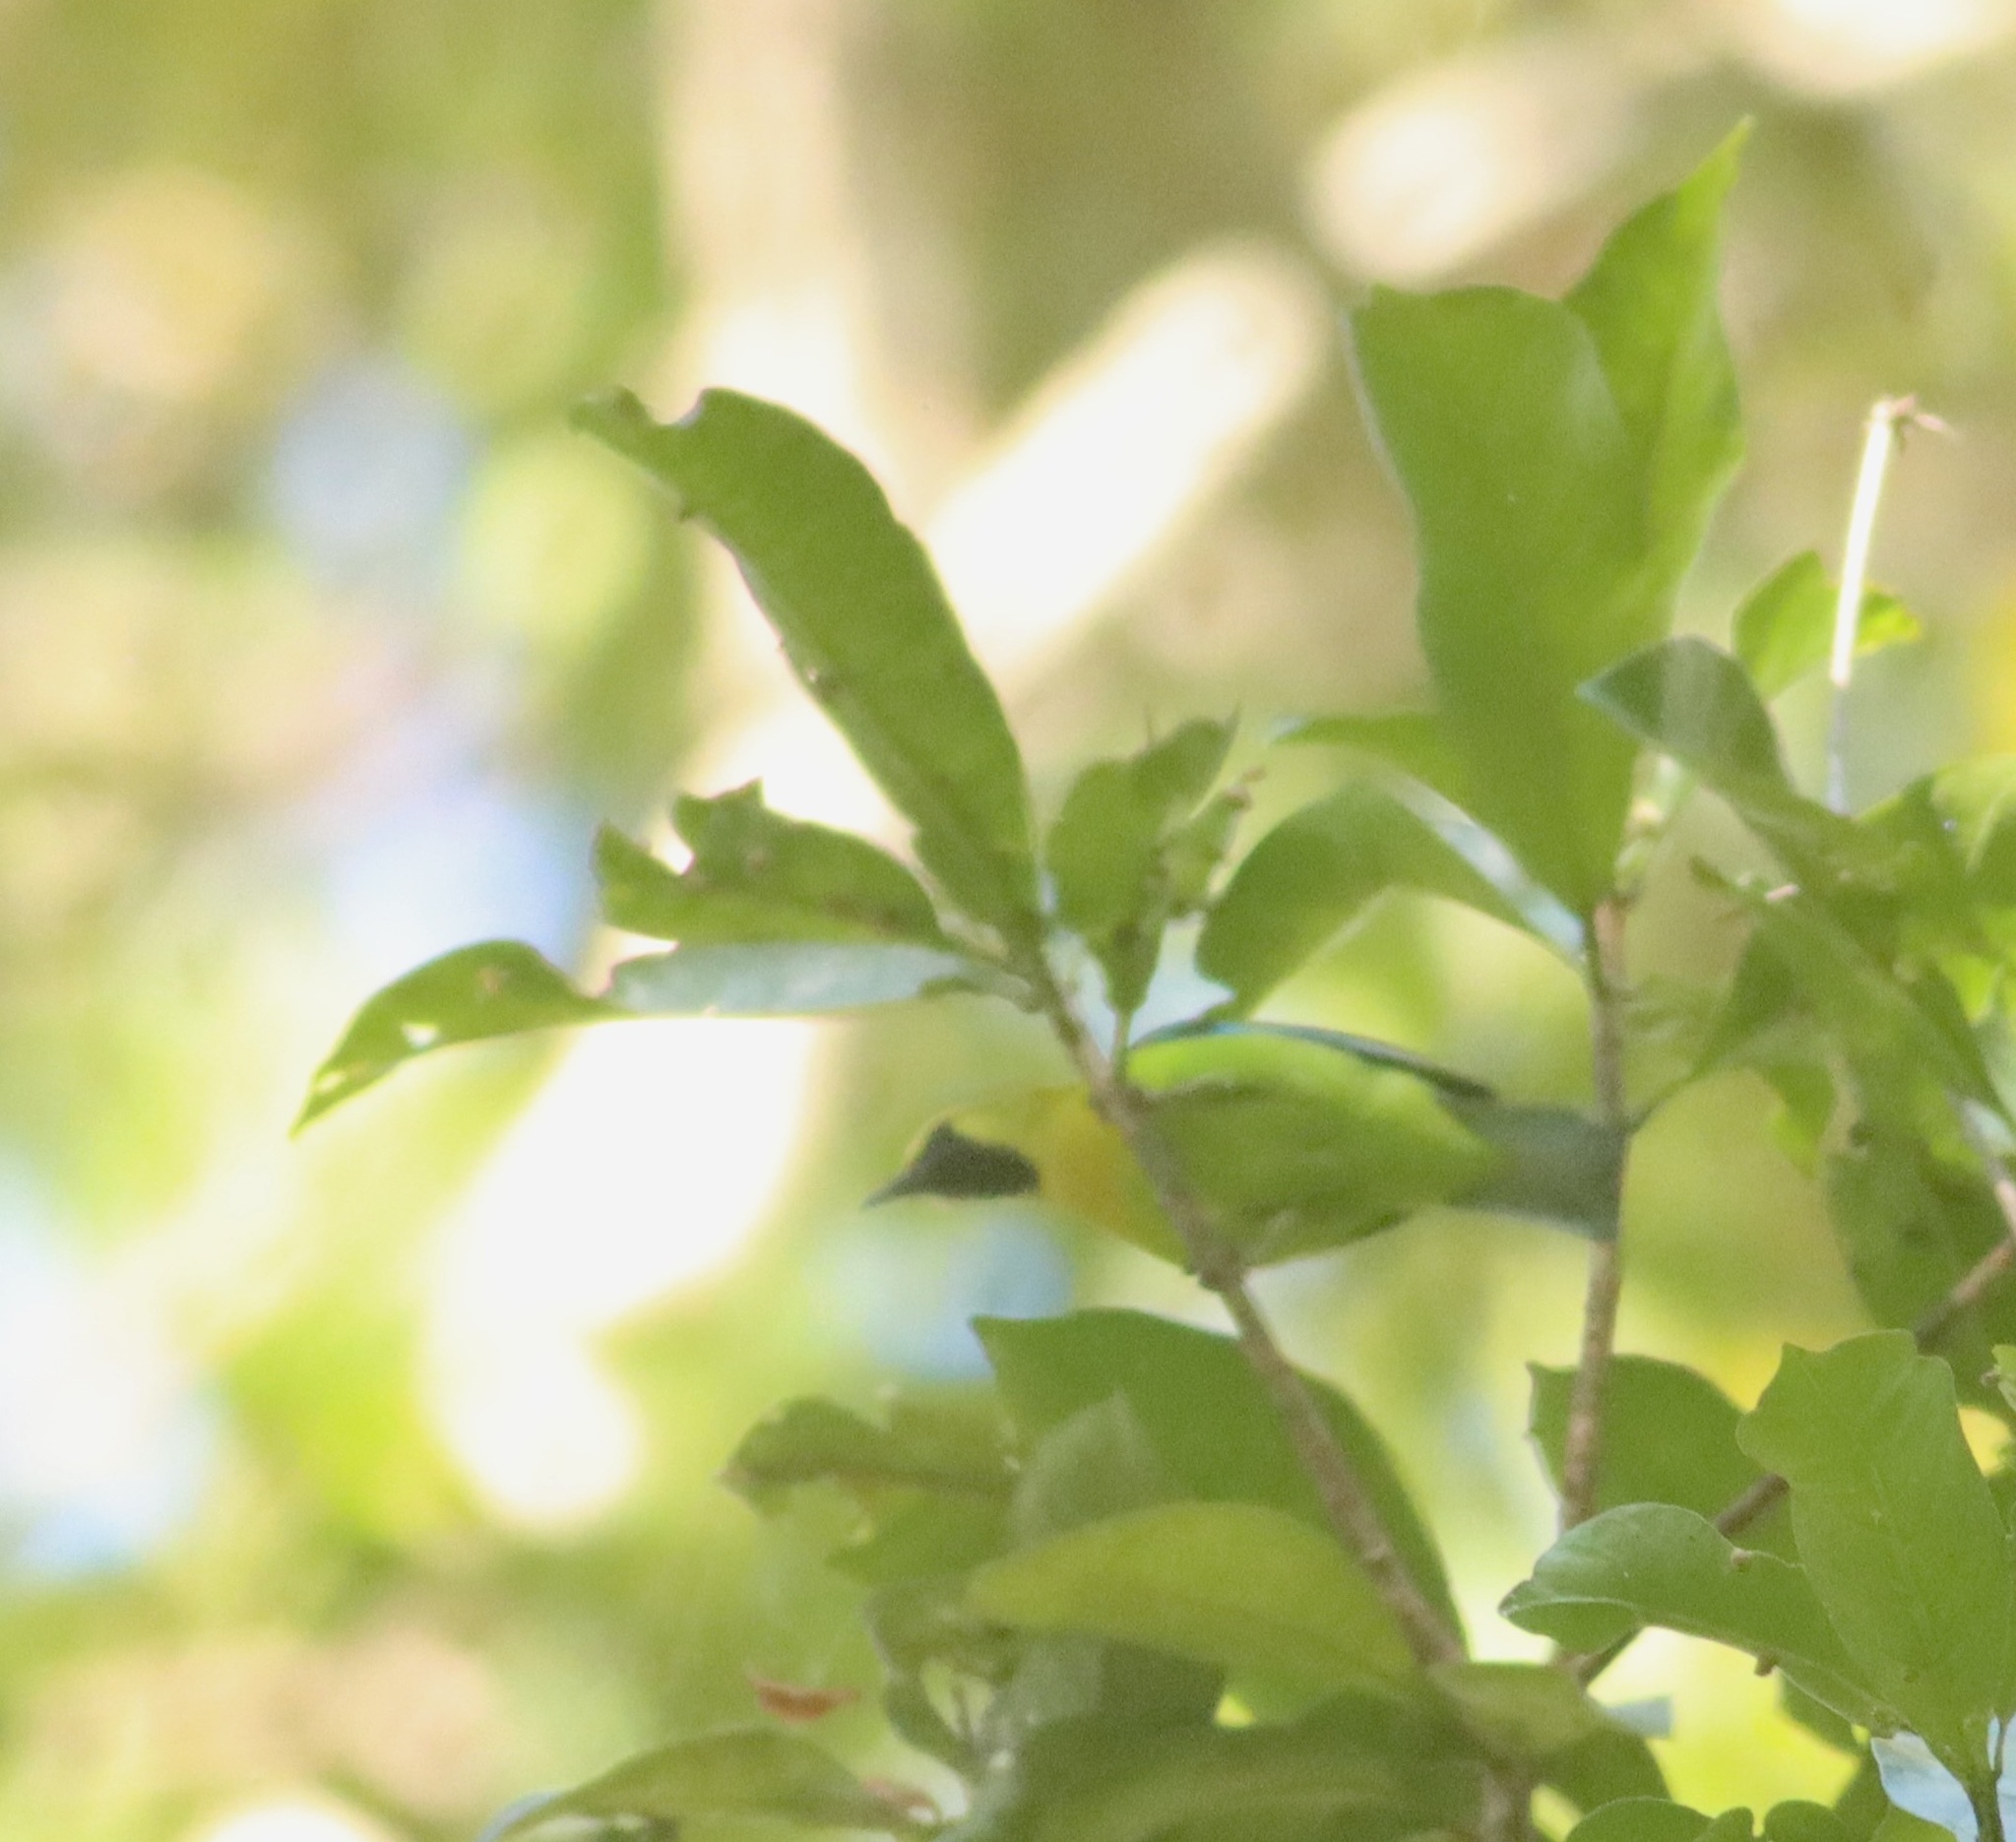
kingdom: Animalia
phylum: Chordata
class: Aves
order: Passeriformes
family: Chloropseidae
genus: Chloropsis
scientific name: Chloropsis moluccensis
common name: Blue-winged leafbird
